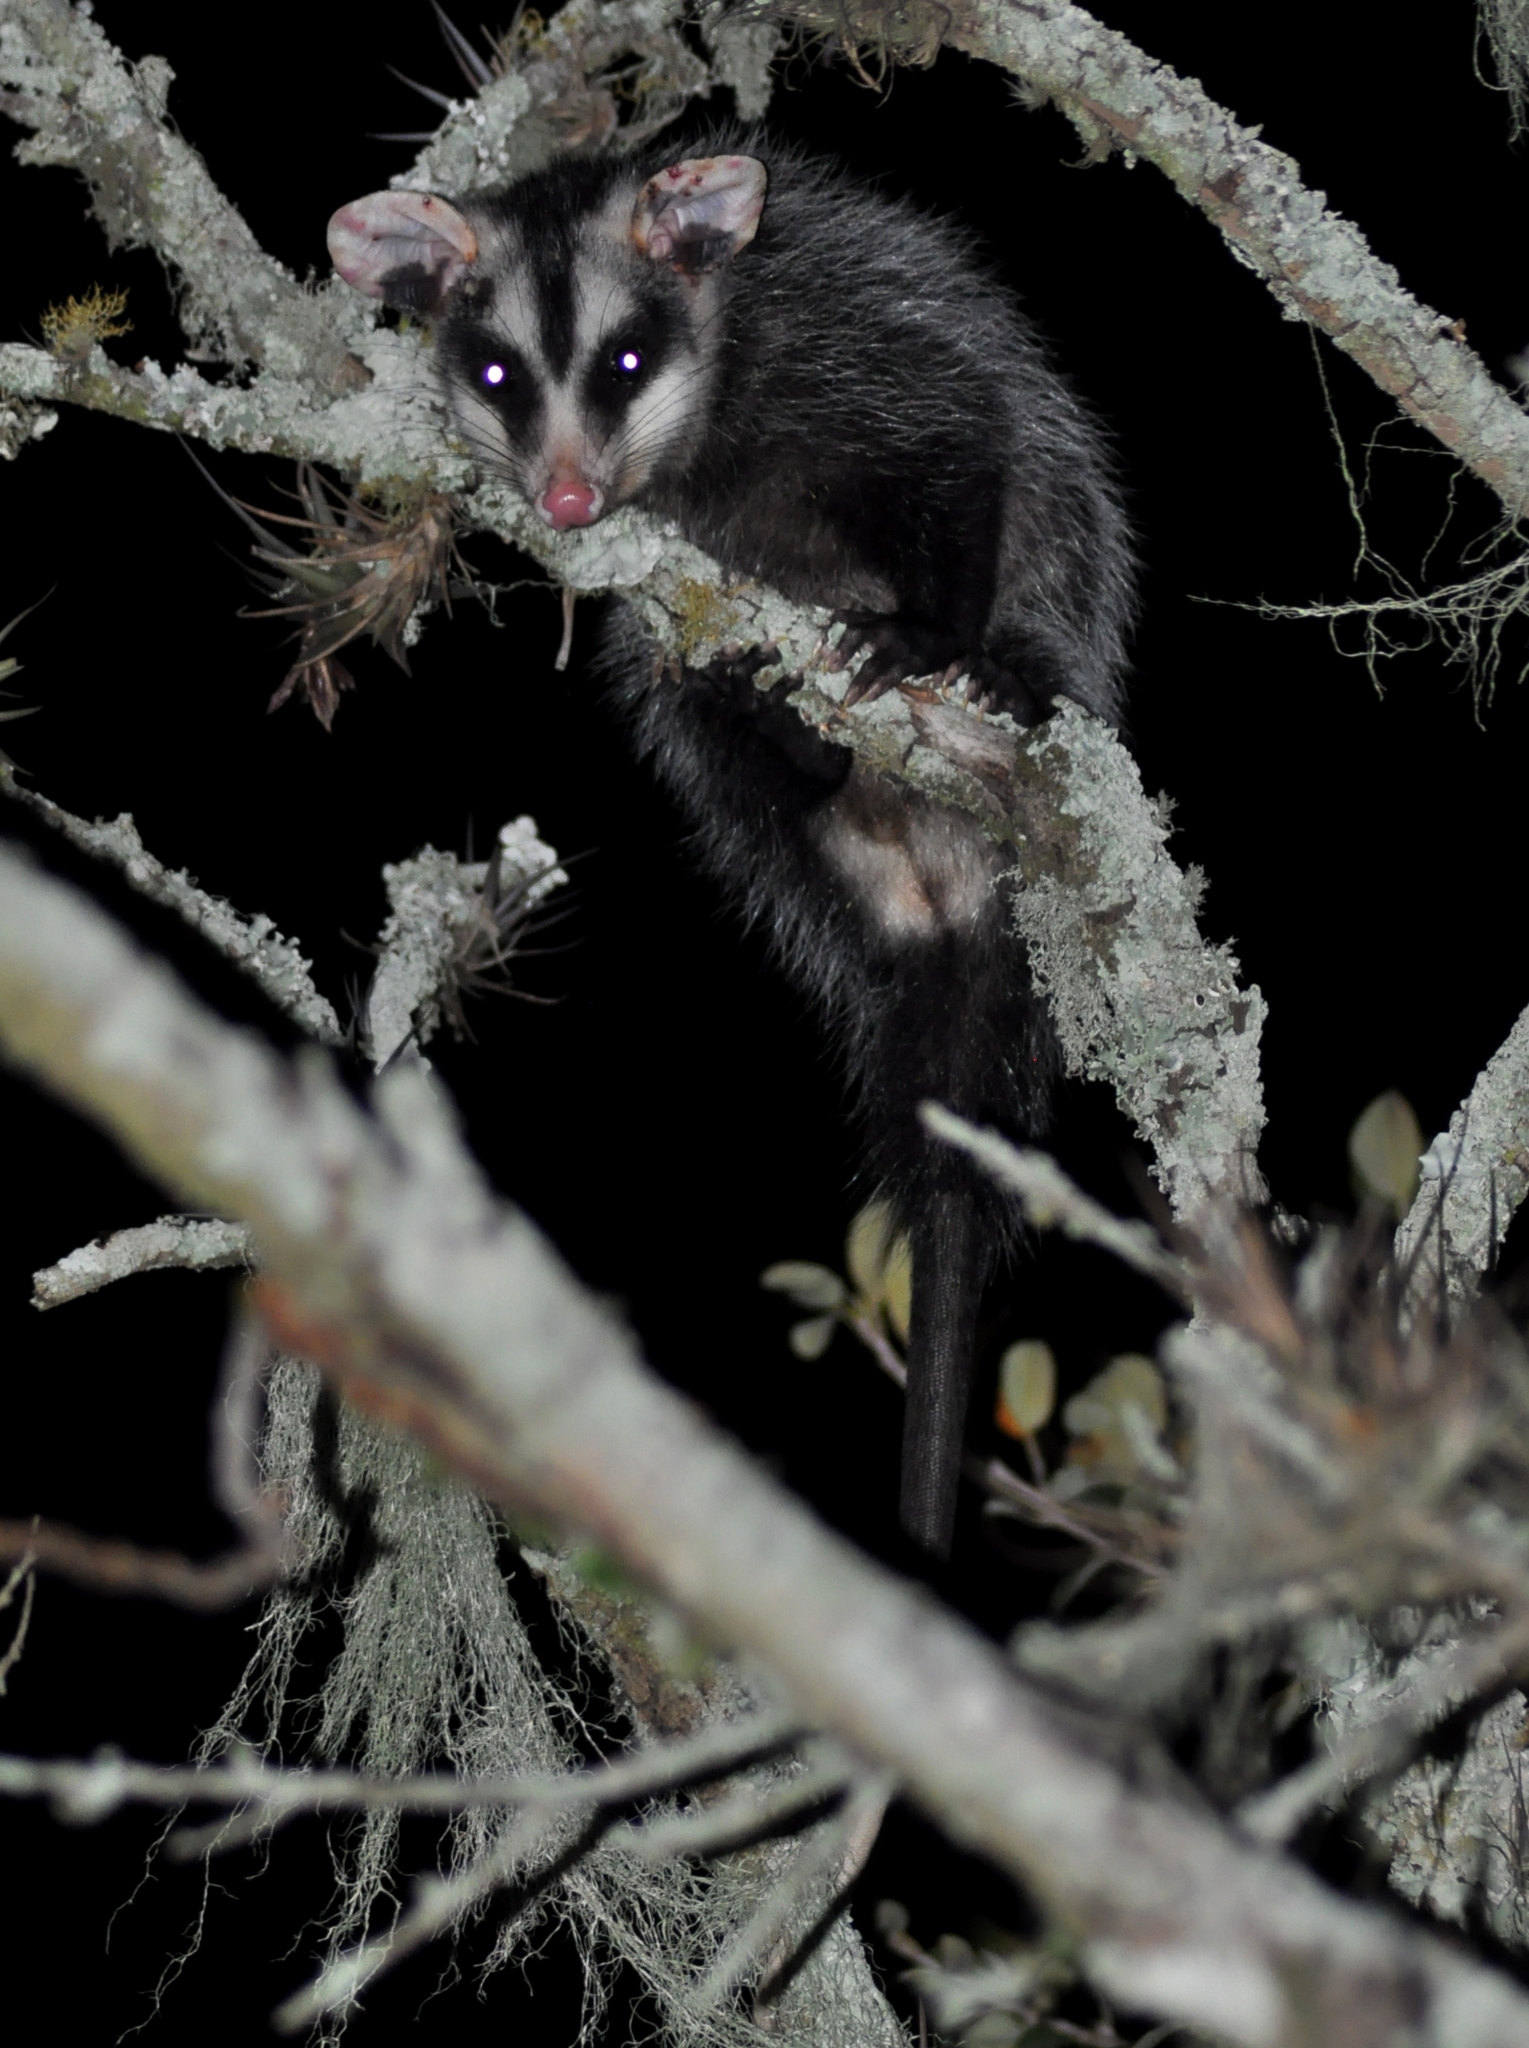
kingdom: Animalia
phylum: Chordata
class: Mammalia
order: Didelphimorphia
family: Didelphidae
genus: Didelphis
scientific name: Didelphis albiventris
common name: White-eared opossum
